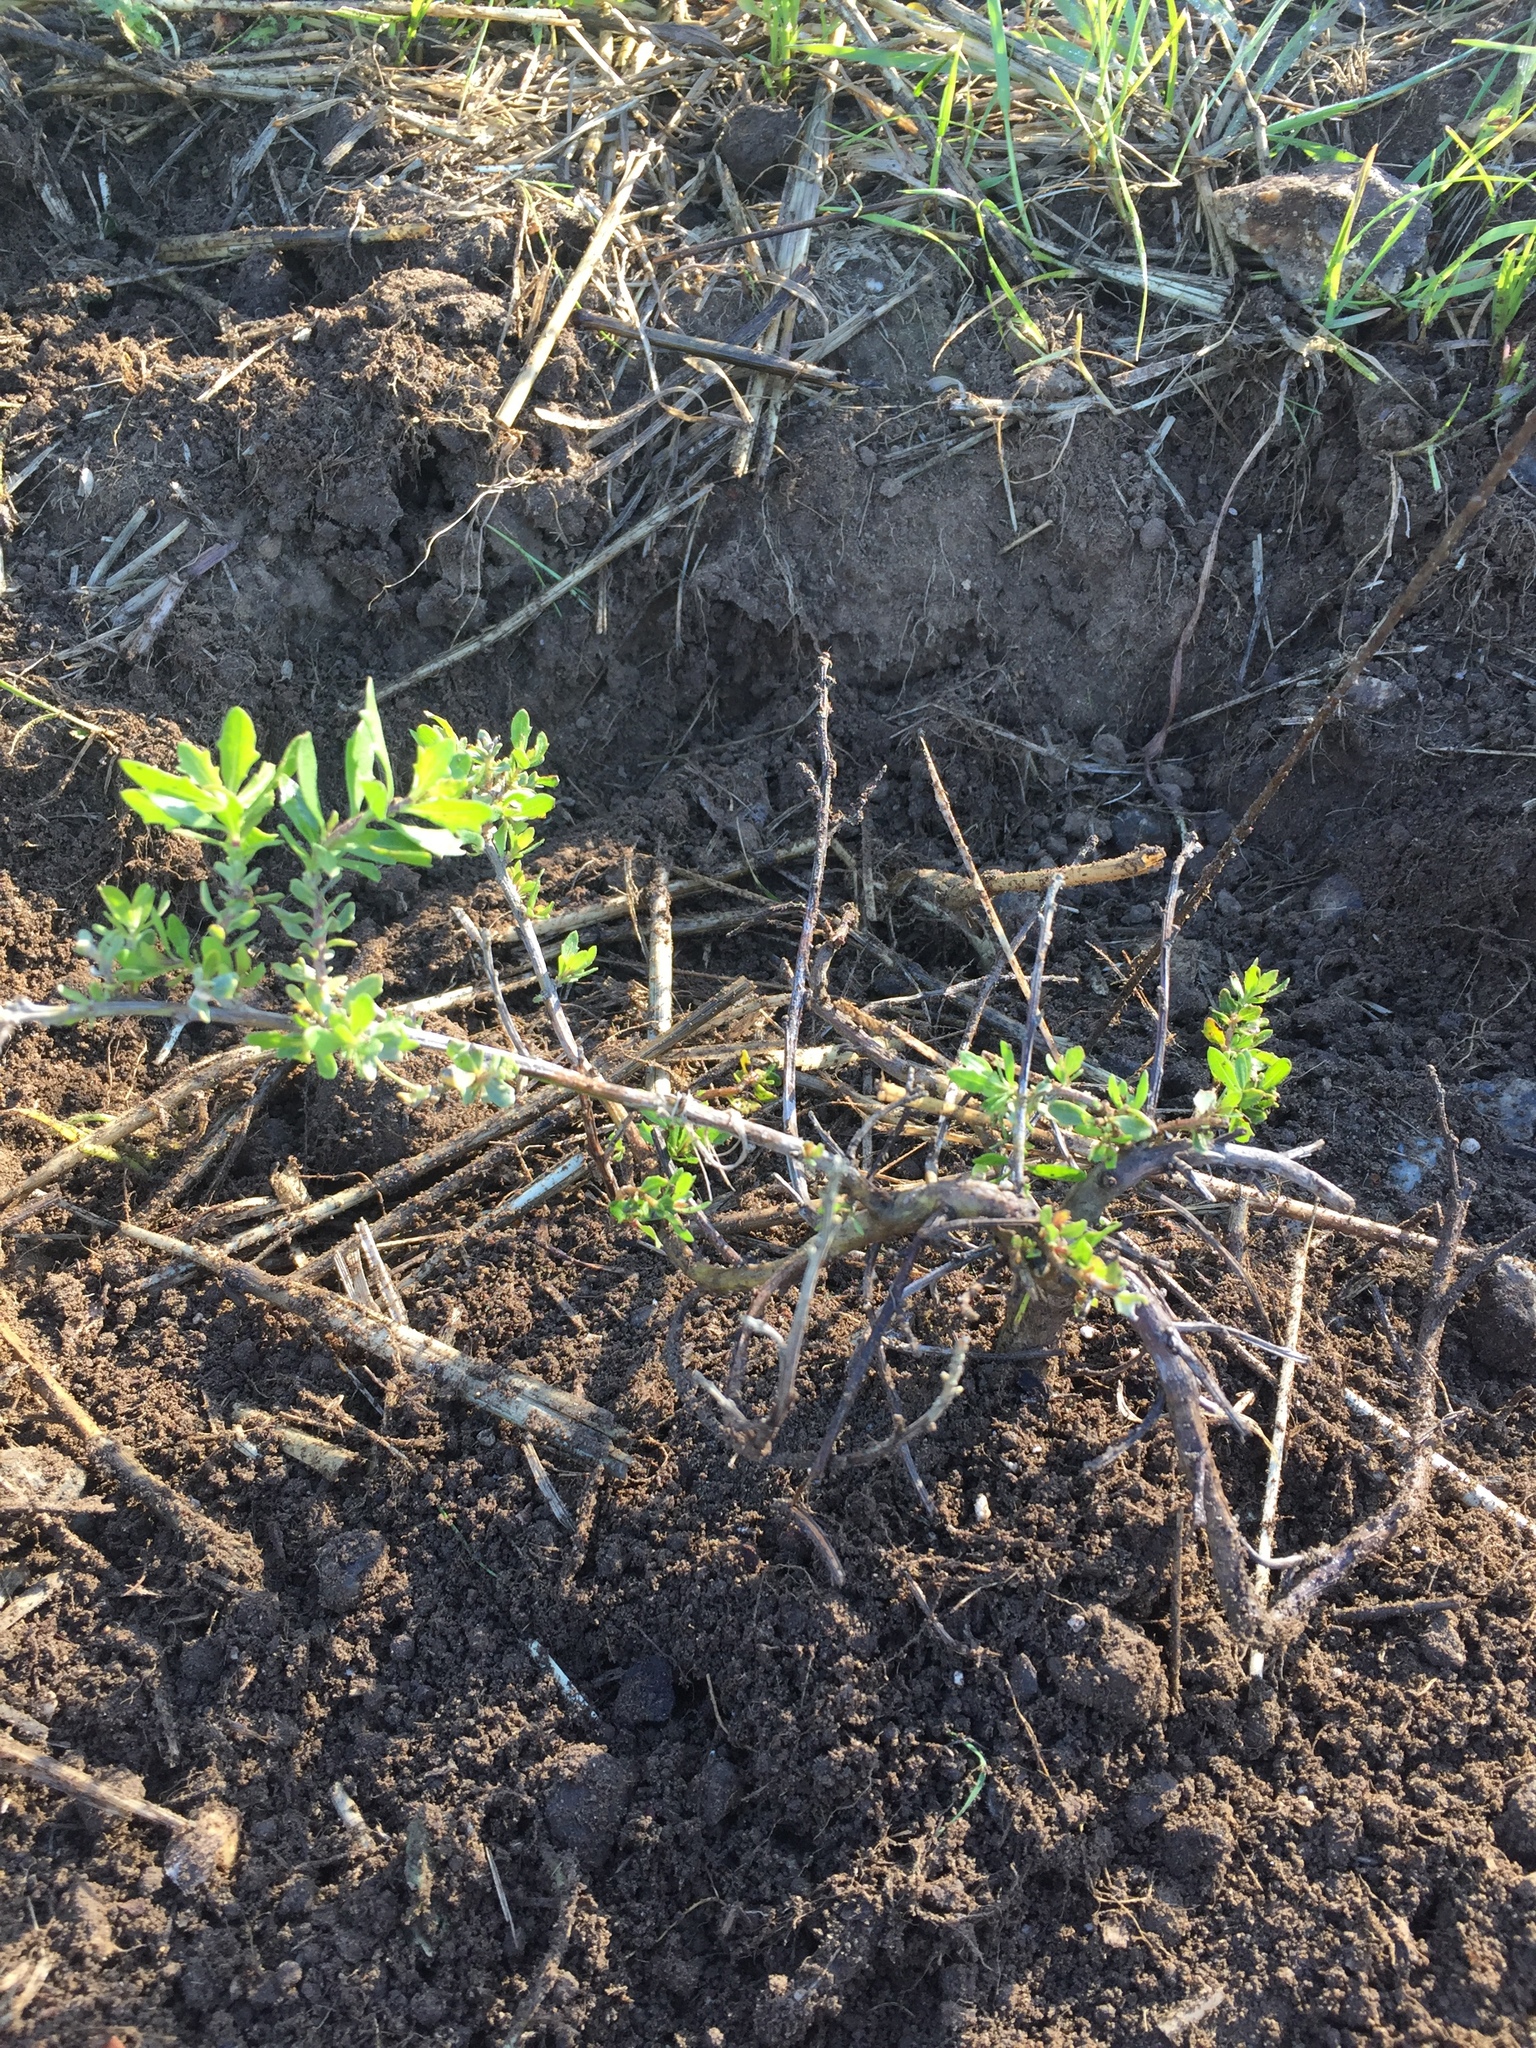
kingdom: Plantae
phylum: Tracheophyta
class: Magnoliopsida
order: Asterales
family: Asteraceae
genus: Baccharis
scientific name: Baccharis pilularis
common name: Coyotebrush
